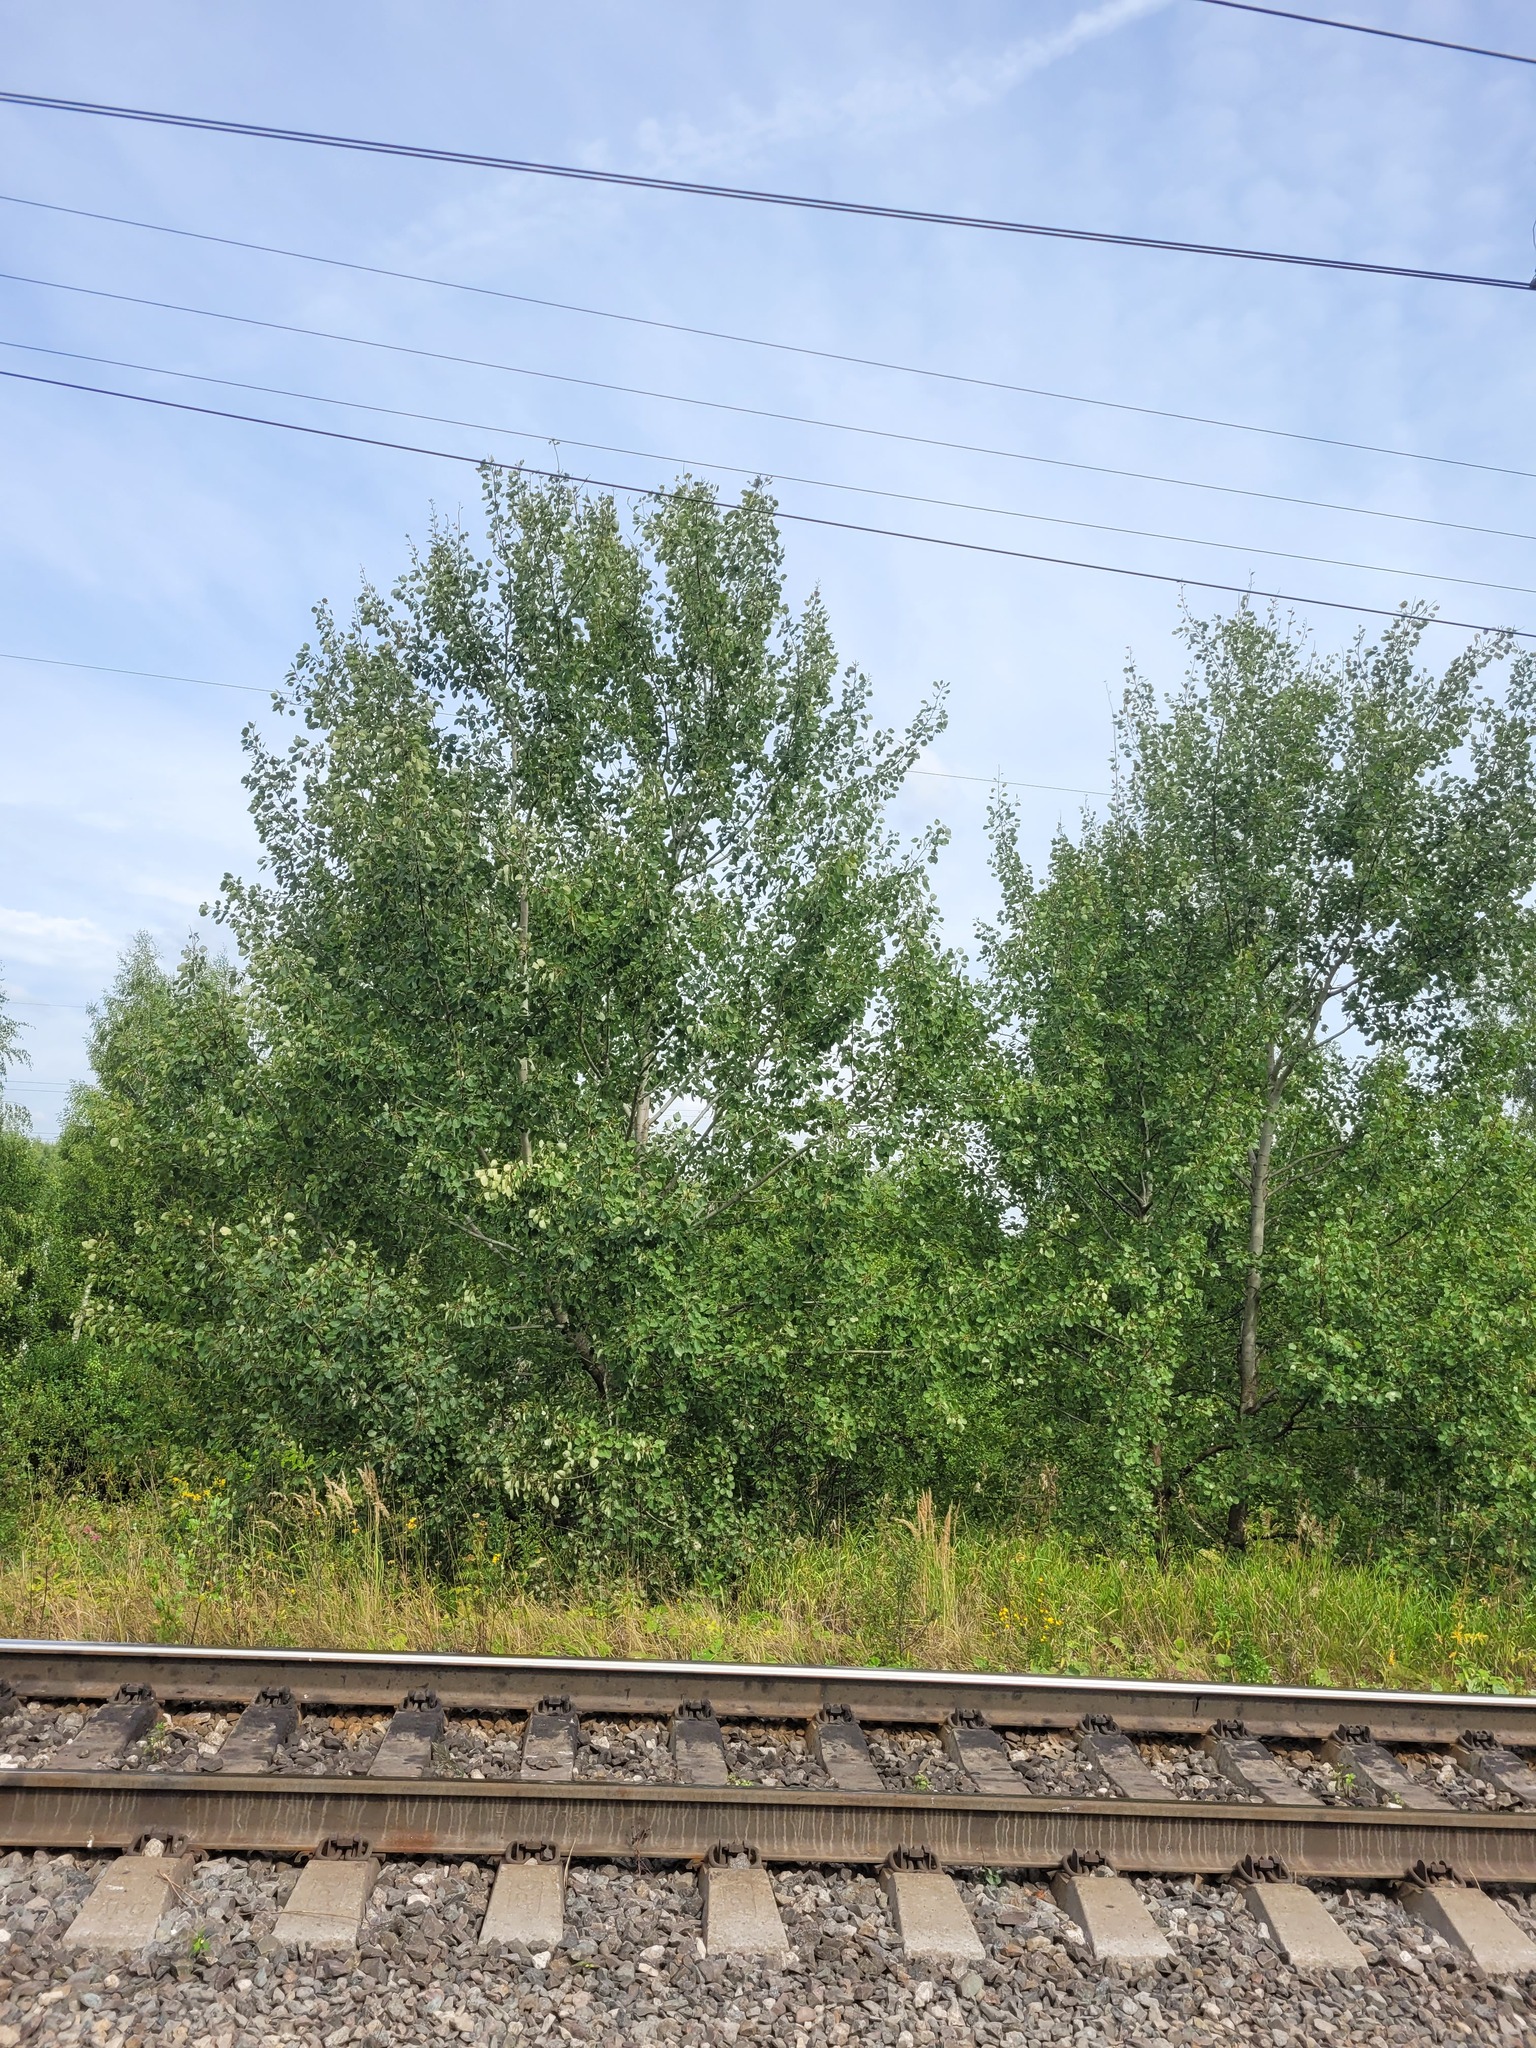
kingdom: Plantae
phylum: Tracheophyta
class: Magnoliopsida
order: Malpighiales
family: Salicaceae
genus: Populus
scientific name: Populus tremula
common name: European aspen
